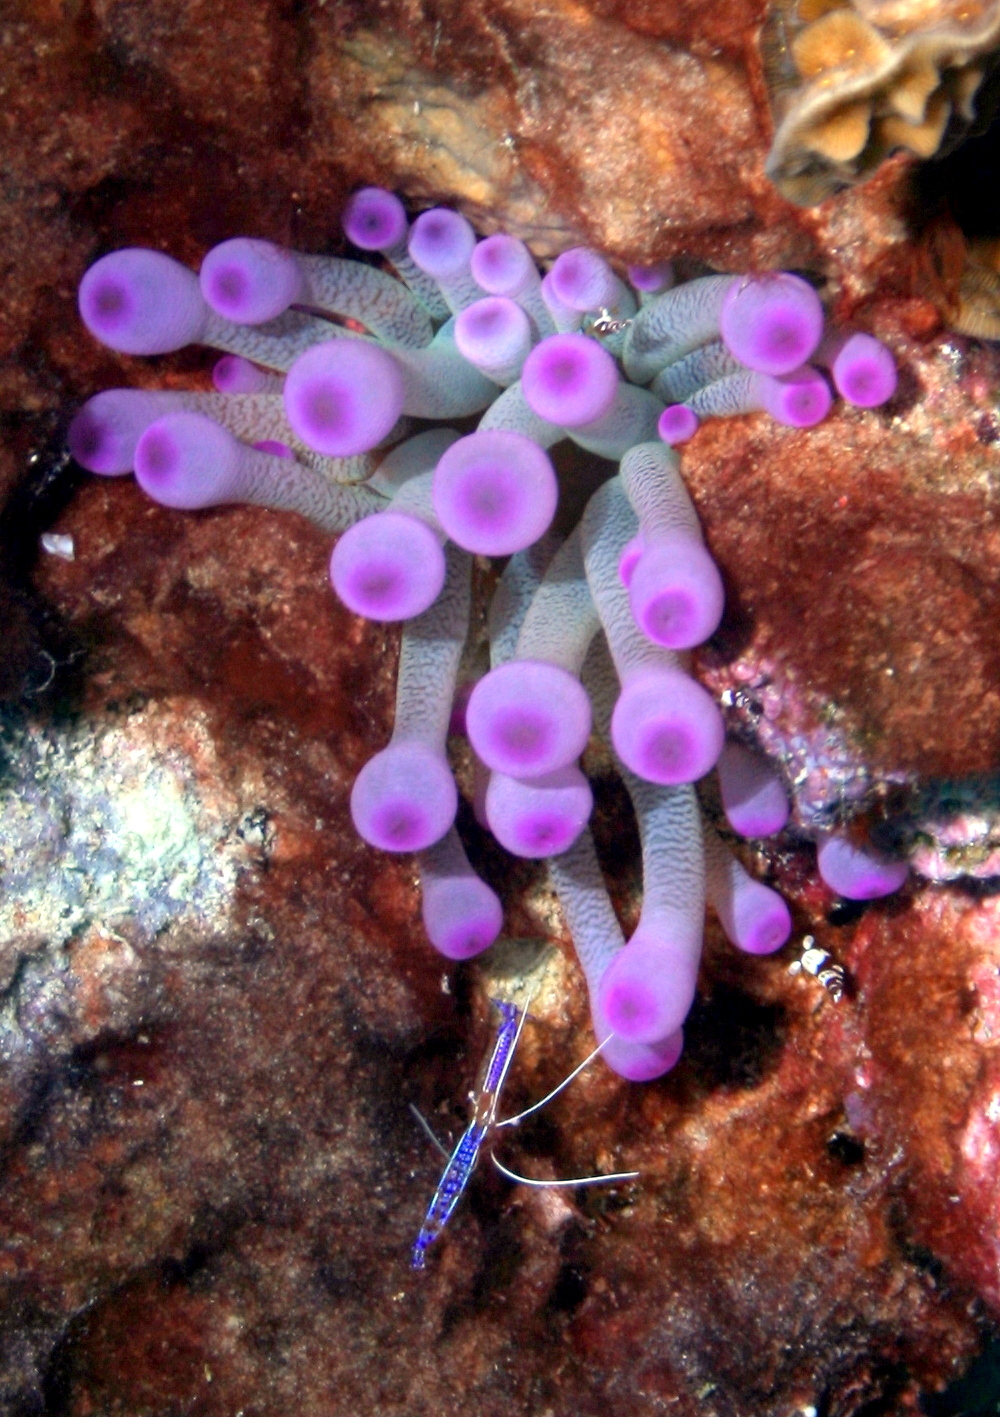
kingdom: Animalia
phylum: Cnidaria
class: Anthozoa
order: Actiniaria
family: Actiniidae
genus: Condylactis
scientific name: Condylactis gigantea
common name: Giant caribbean anemone
